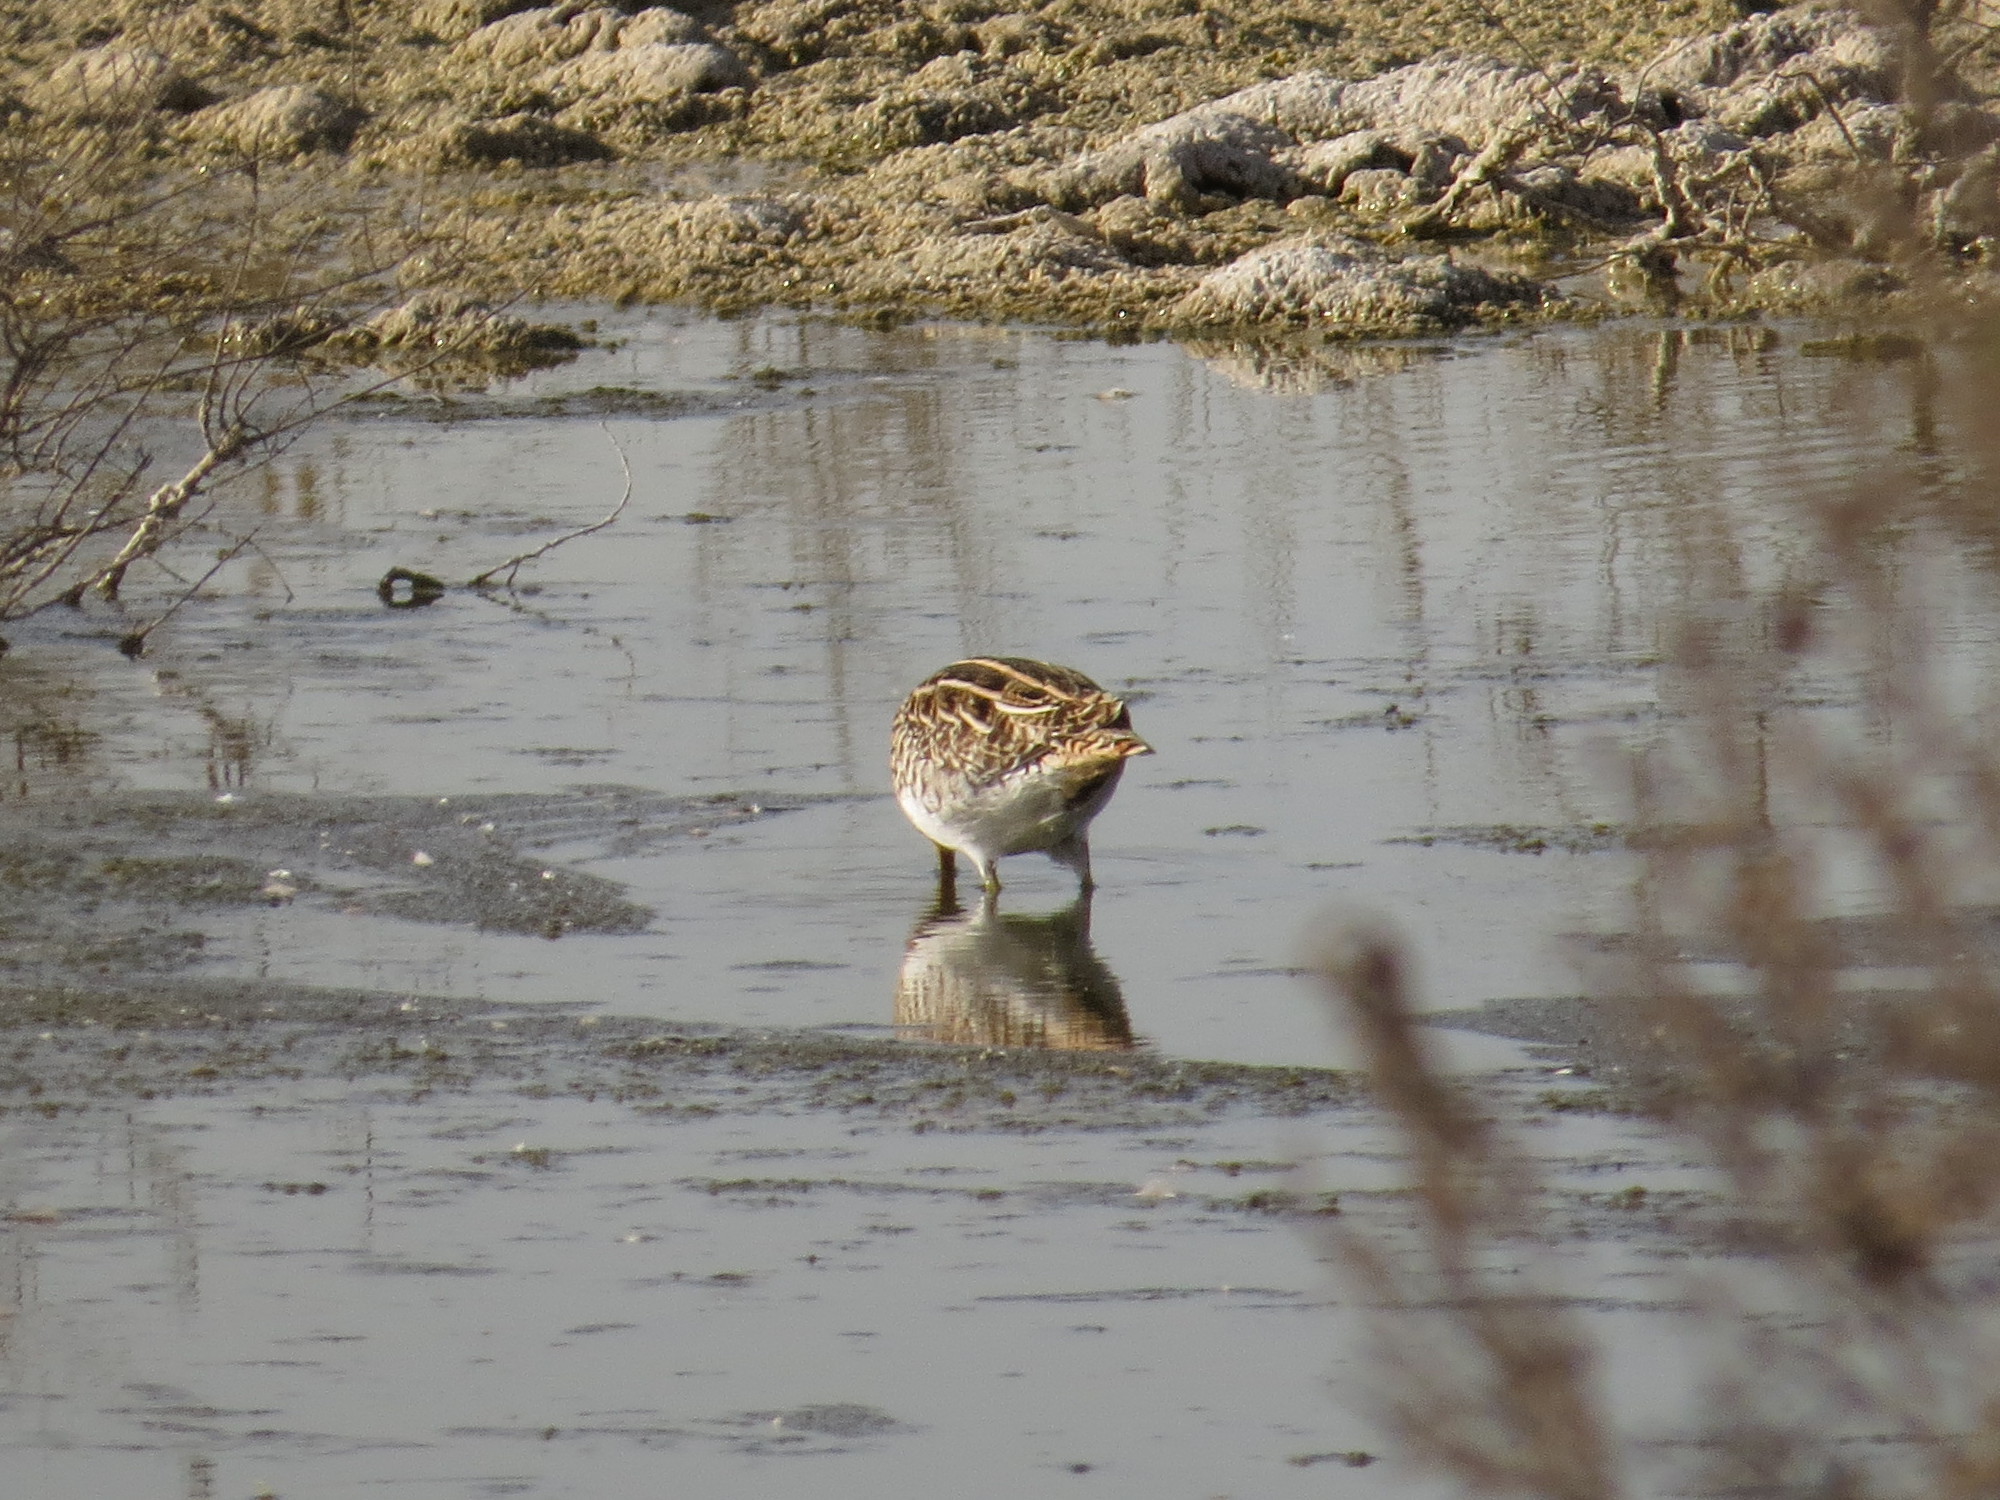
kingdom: Animalia
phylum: Chordata
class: Aves
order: Charadriiformes
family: Scolopacidae
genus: Gallinago
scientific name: Gallinago gallinago
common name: Common snipe
